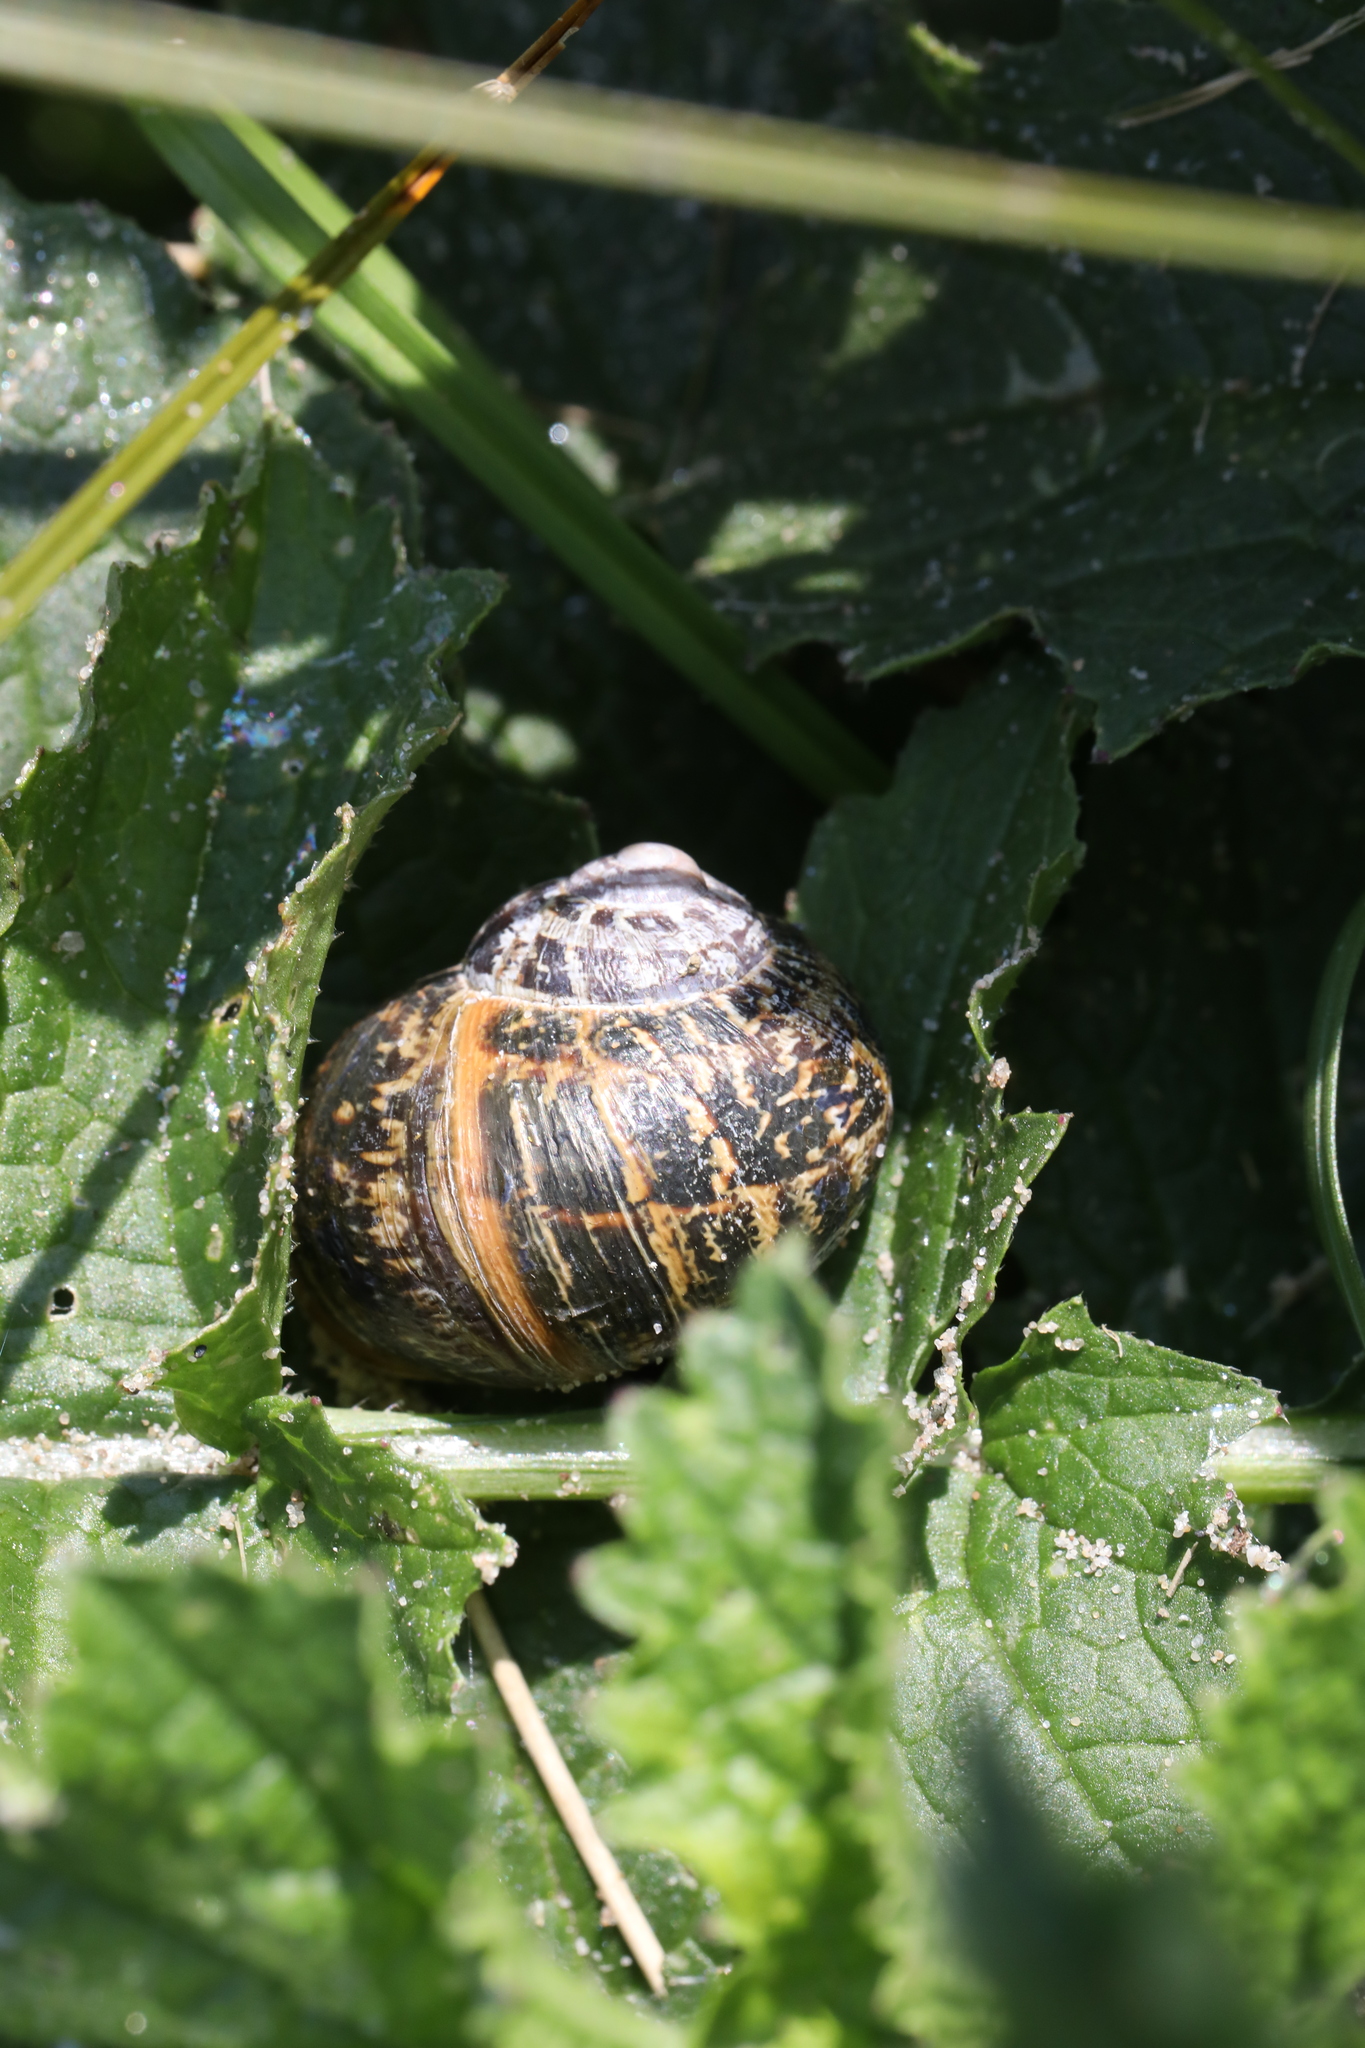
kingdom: Animalia
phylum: Mollusca
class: Gastropoda
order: Stylommatophora
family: Helicidae
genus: Cornu
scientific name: Cornu aspersum
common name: Brown garden snail
